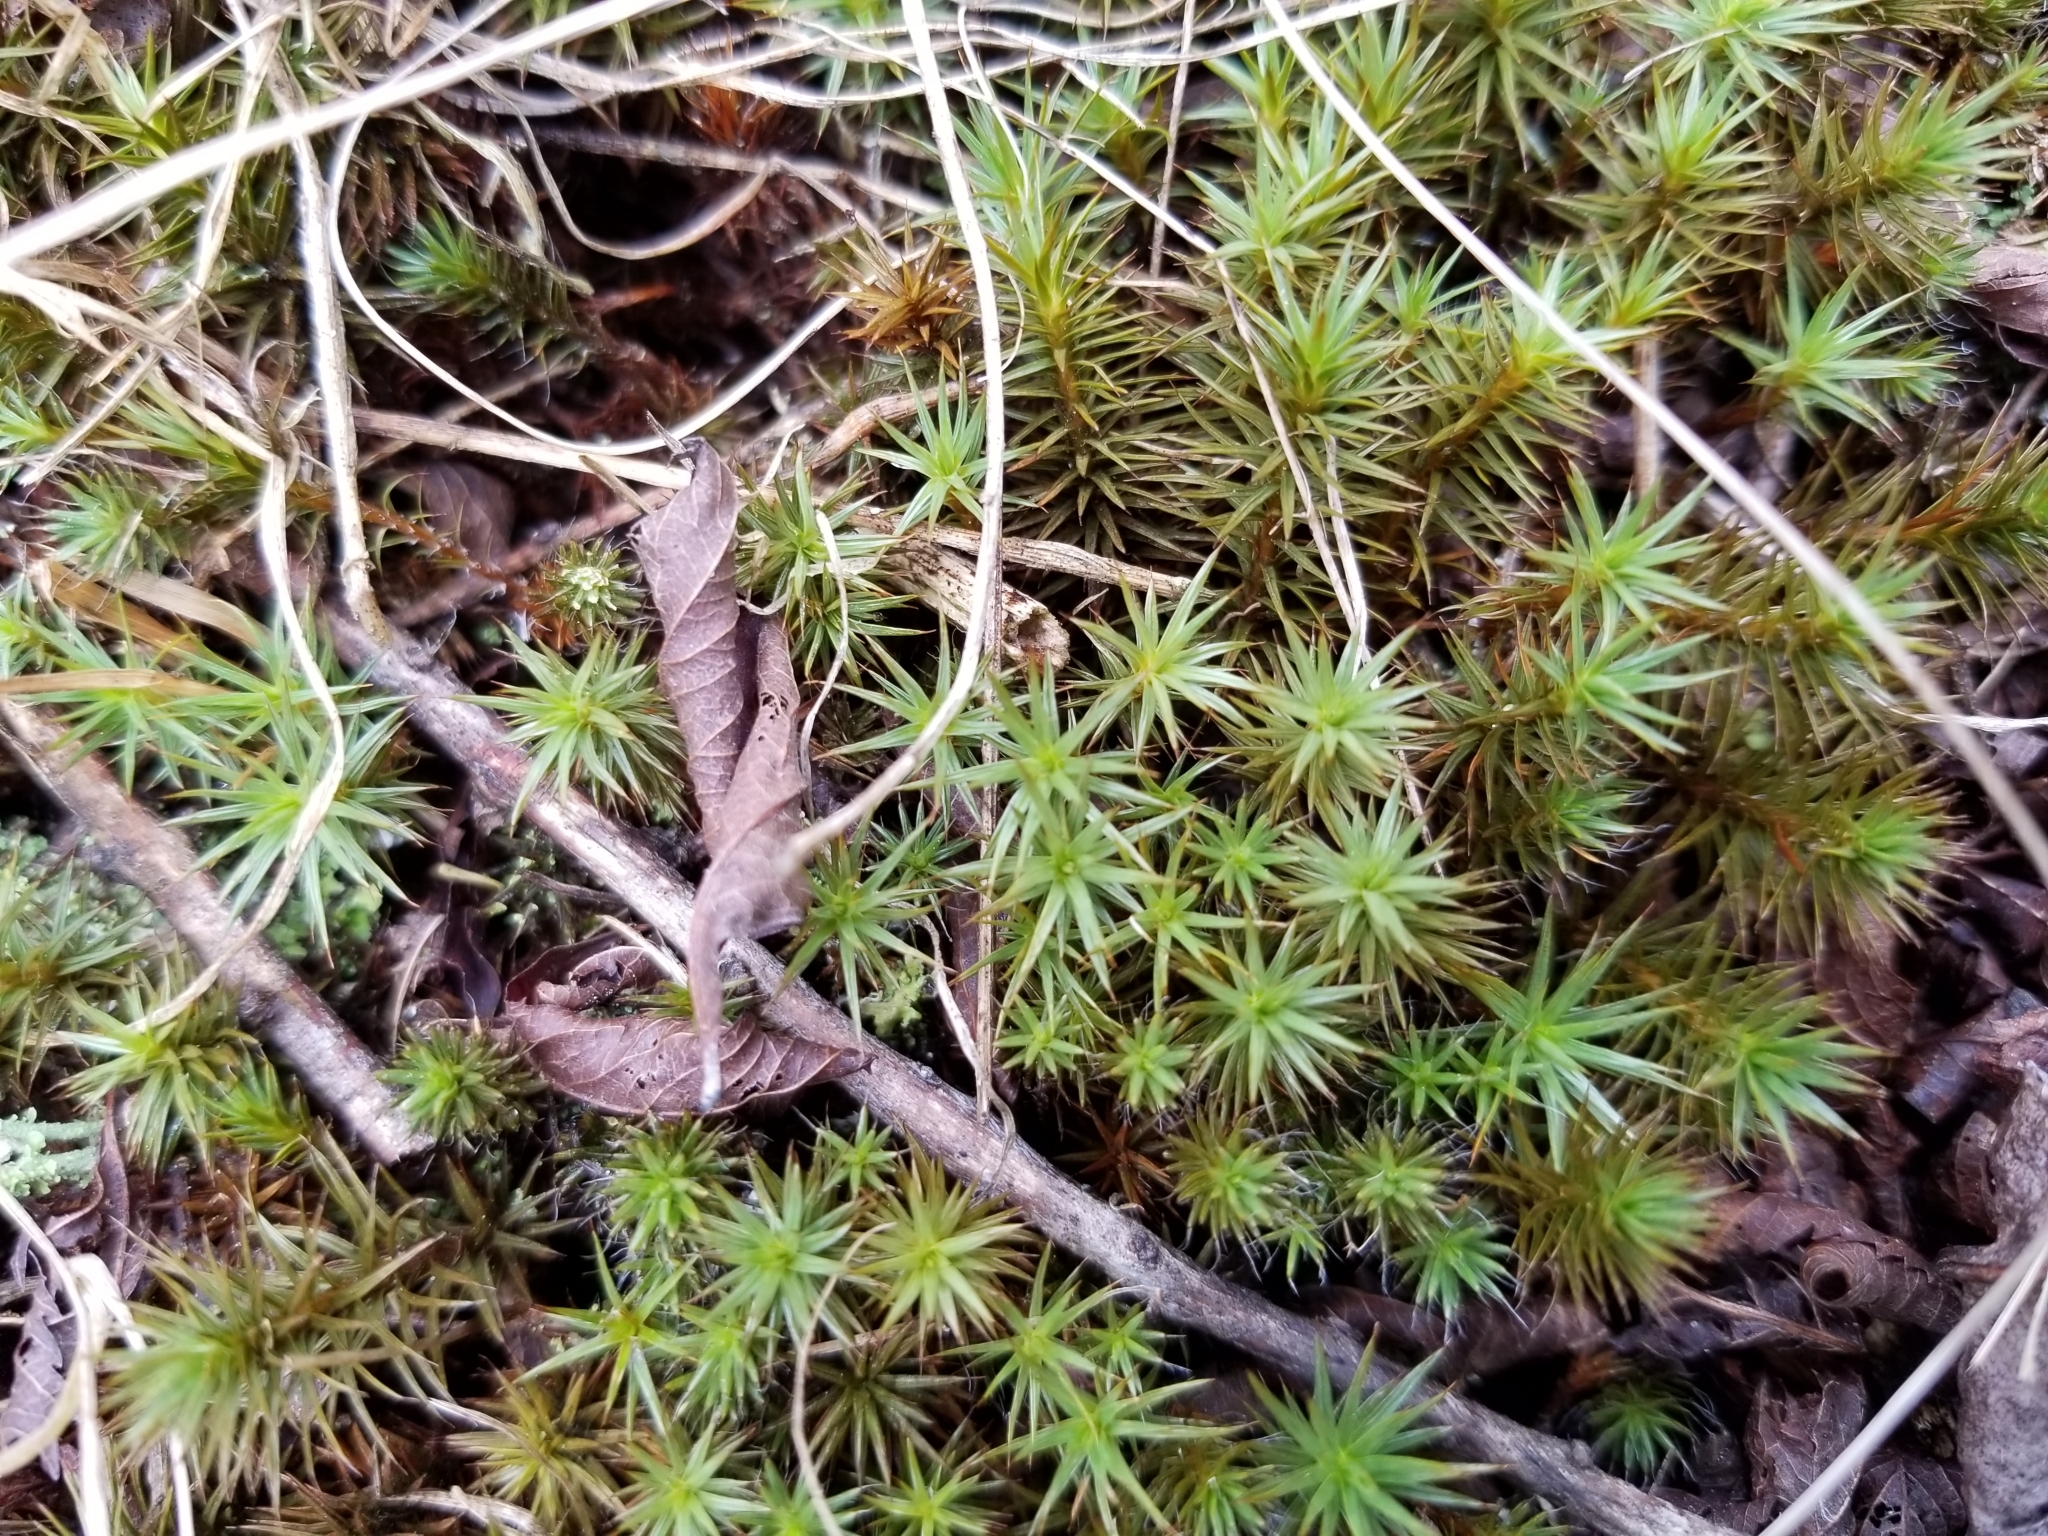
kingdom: Plantae
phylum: Bryophyta
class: Polytrichopsida
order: Polytrichales
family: Polytrichaceae
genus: Polytrichum
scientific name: Polytrichum juniperinum
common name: Juniper haircap moss
